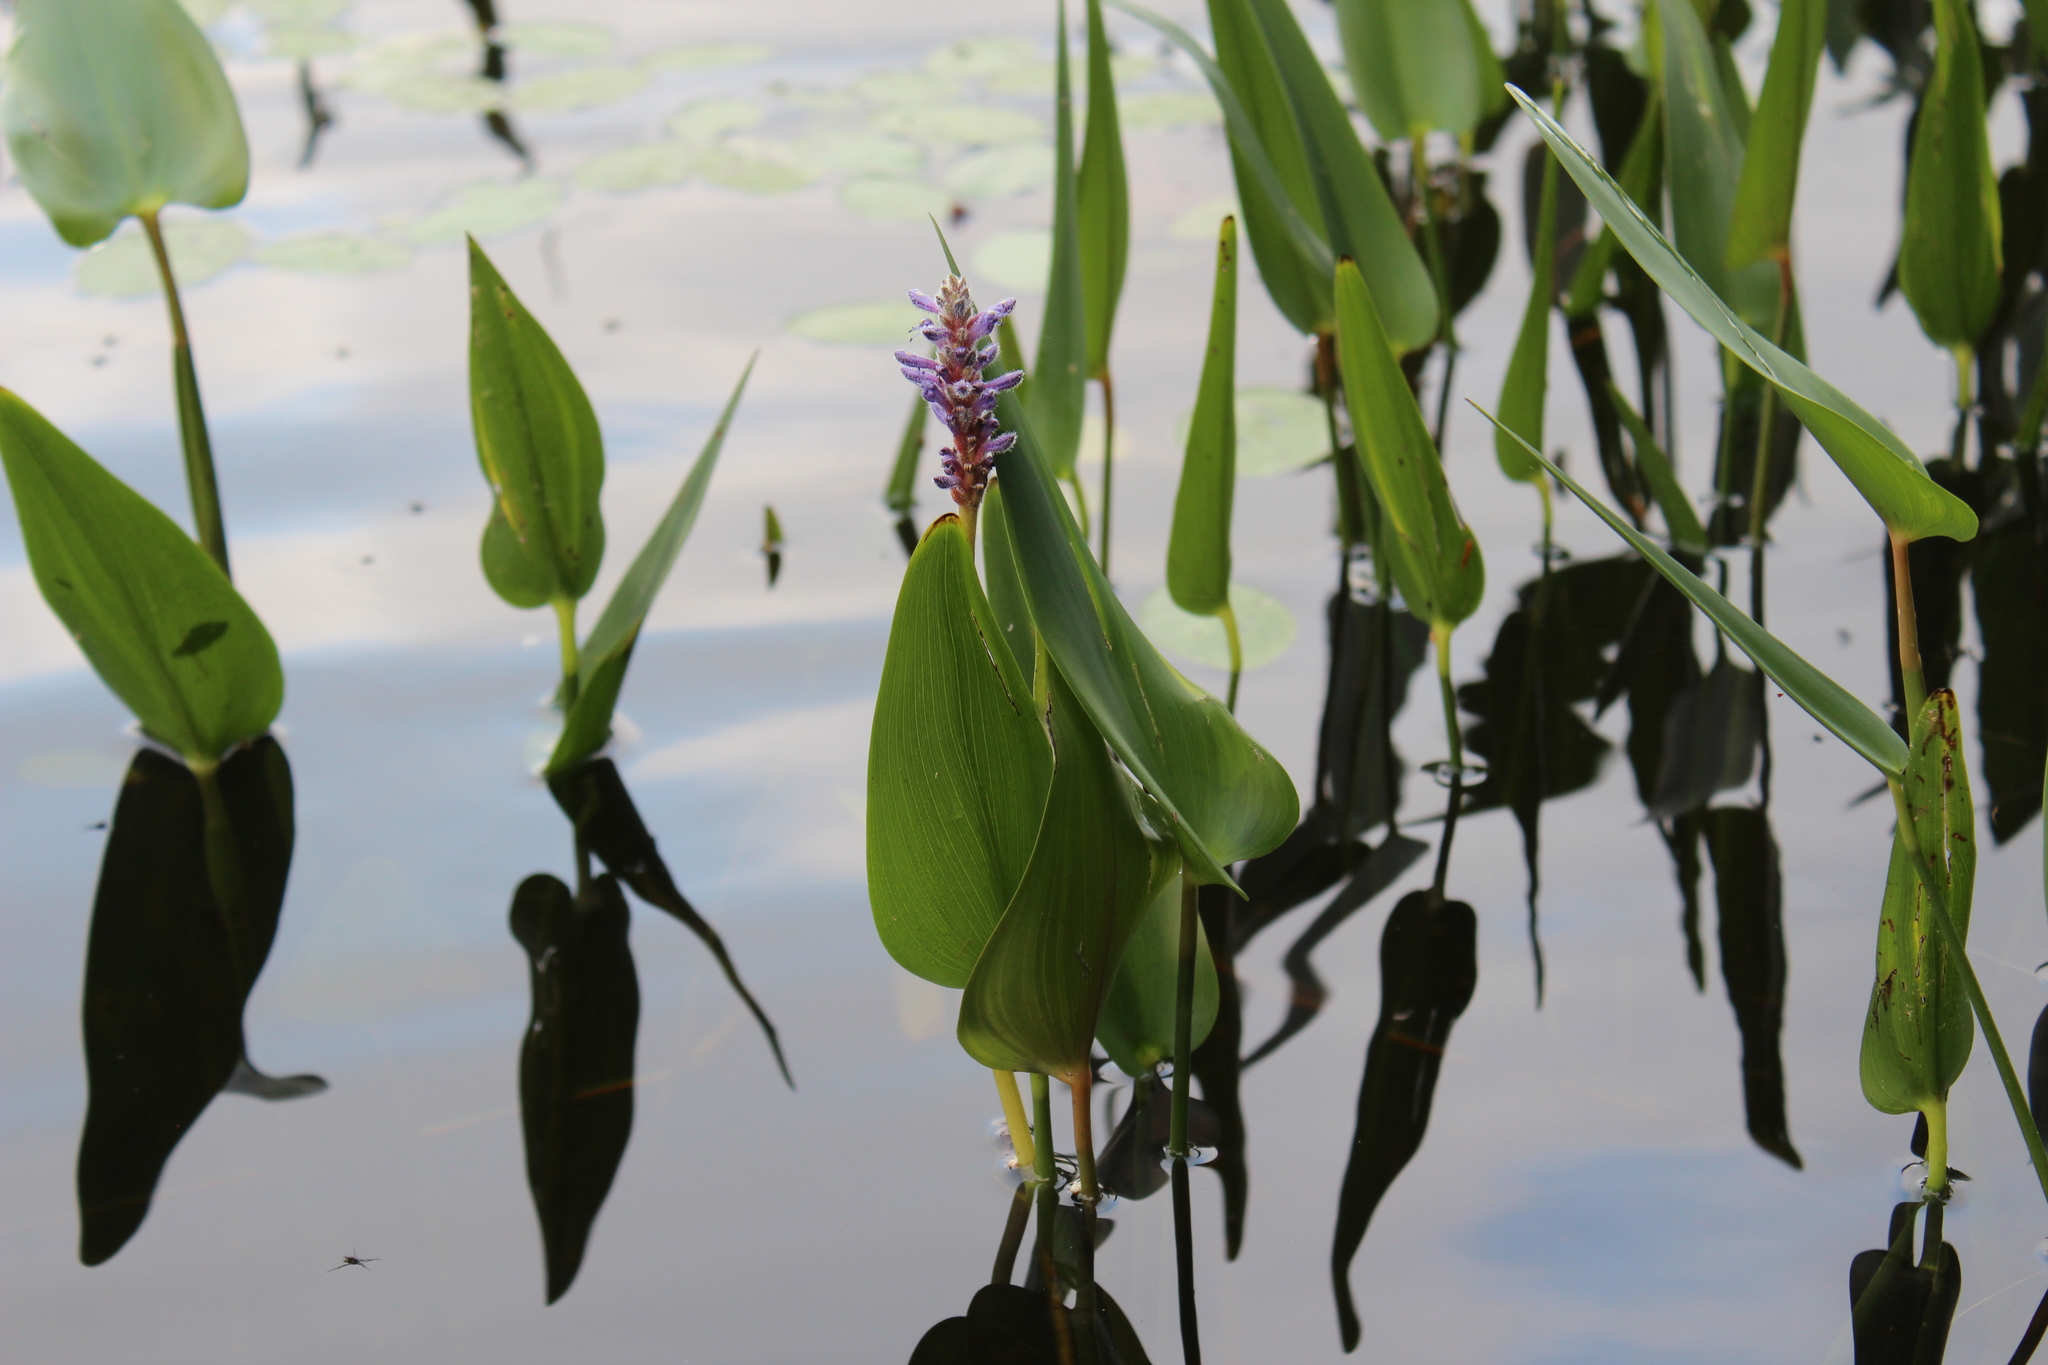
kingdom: Plantae
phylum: Tracheophyta
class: Liliopsida
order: Commelinales
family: Pontederiaceae
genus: Pontederia
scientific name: Pontederia cordata
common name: Pickerelweed
